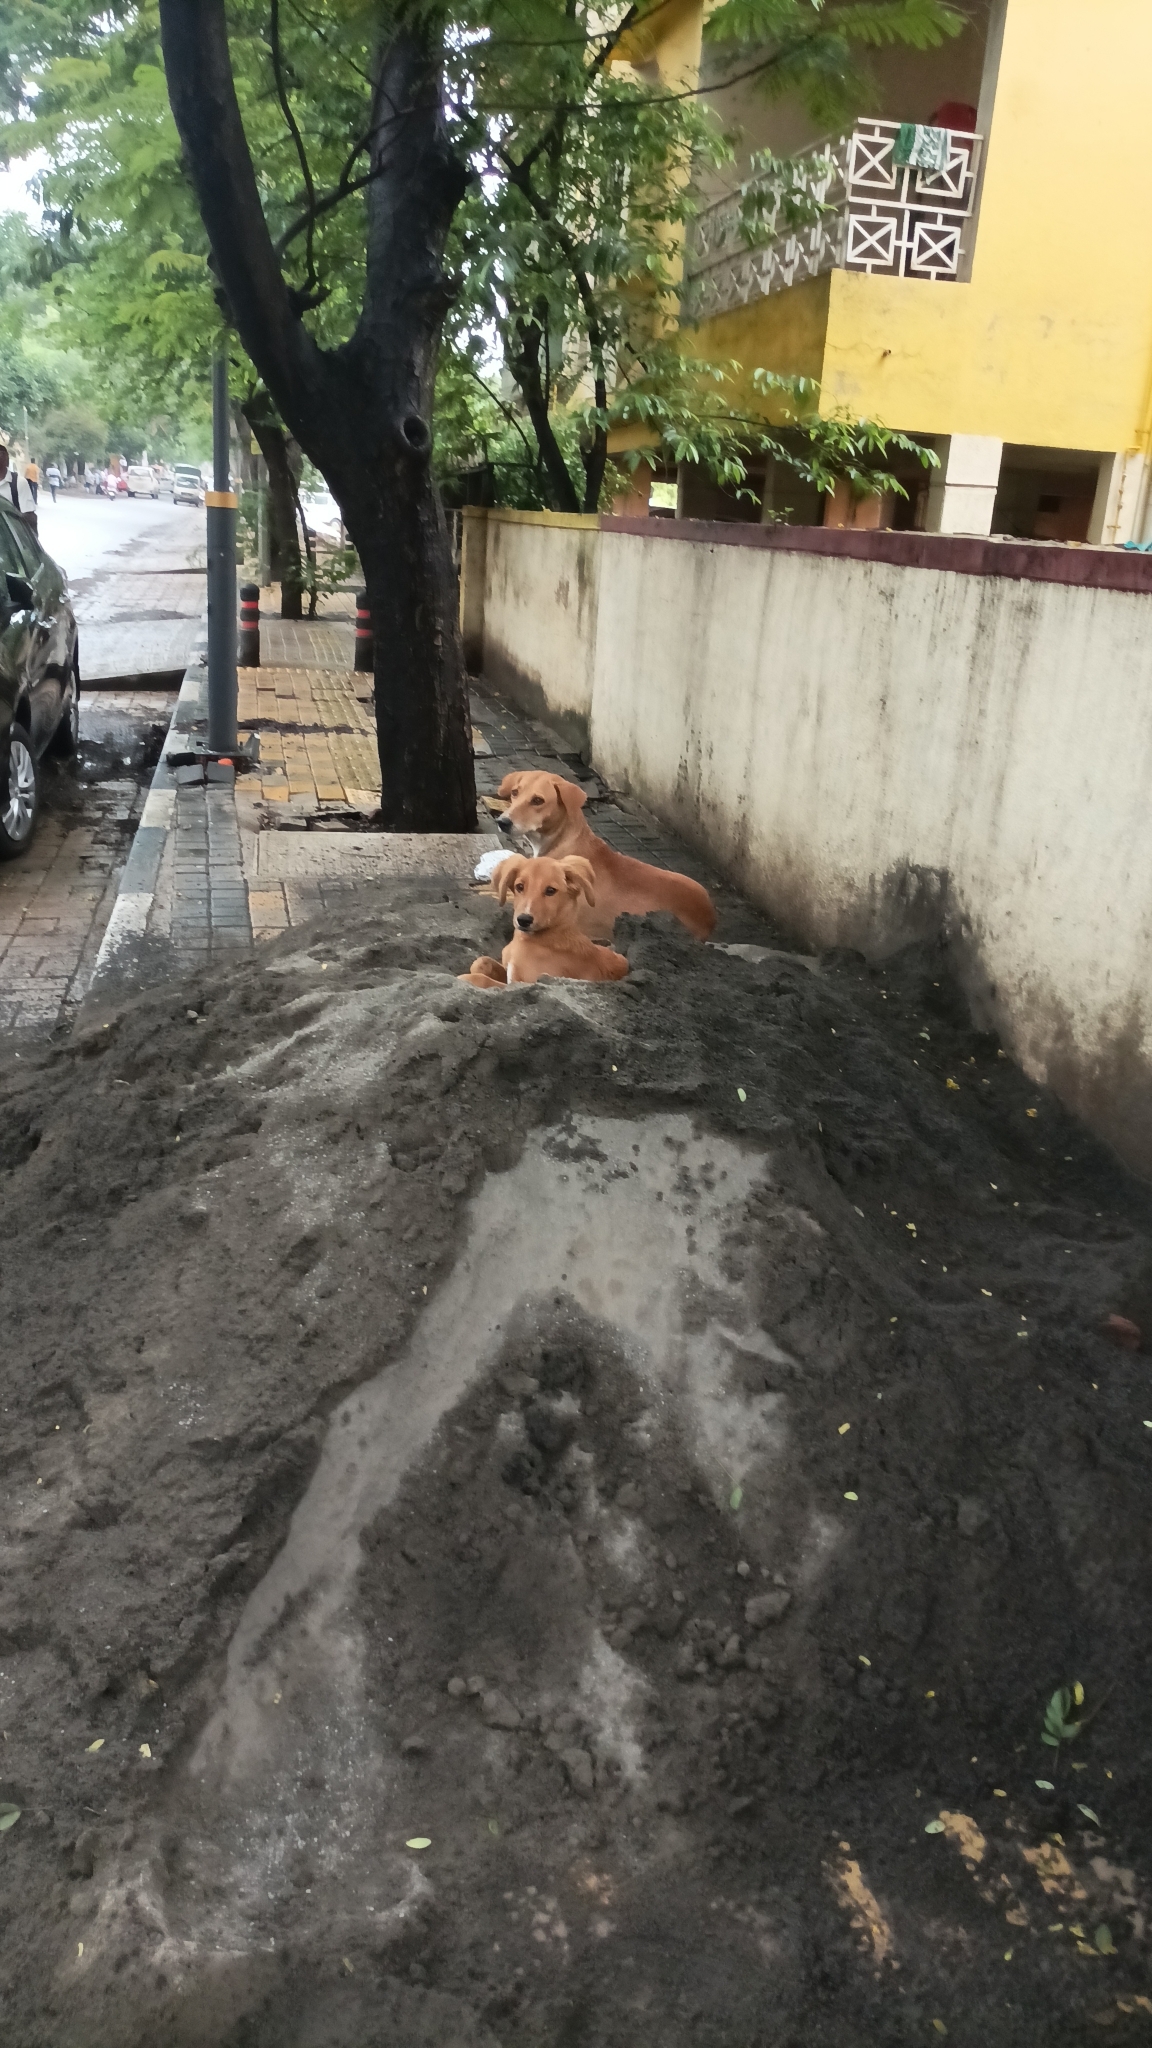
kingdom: Animalia
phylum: Chordata
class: Mammalia
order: Carnivora
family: Canidae
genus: Canis
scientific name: Canis lupus
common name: Gray wolf
